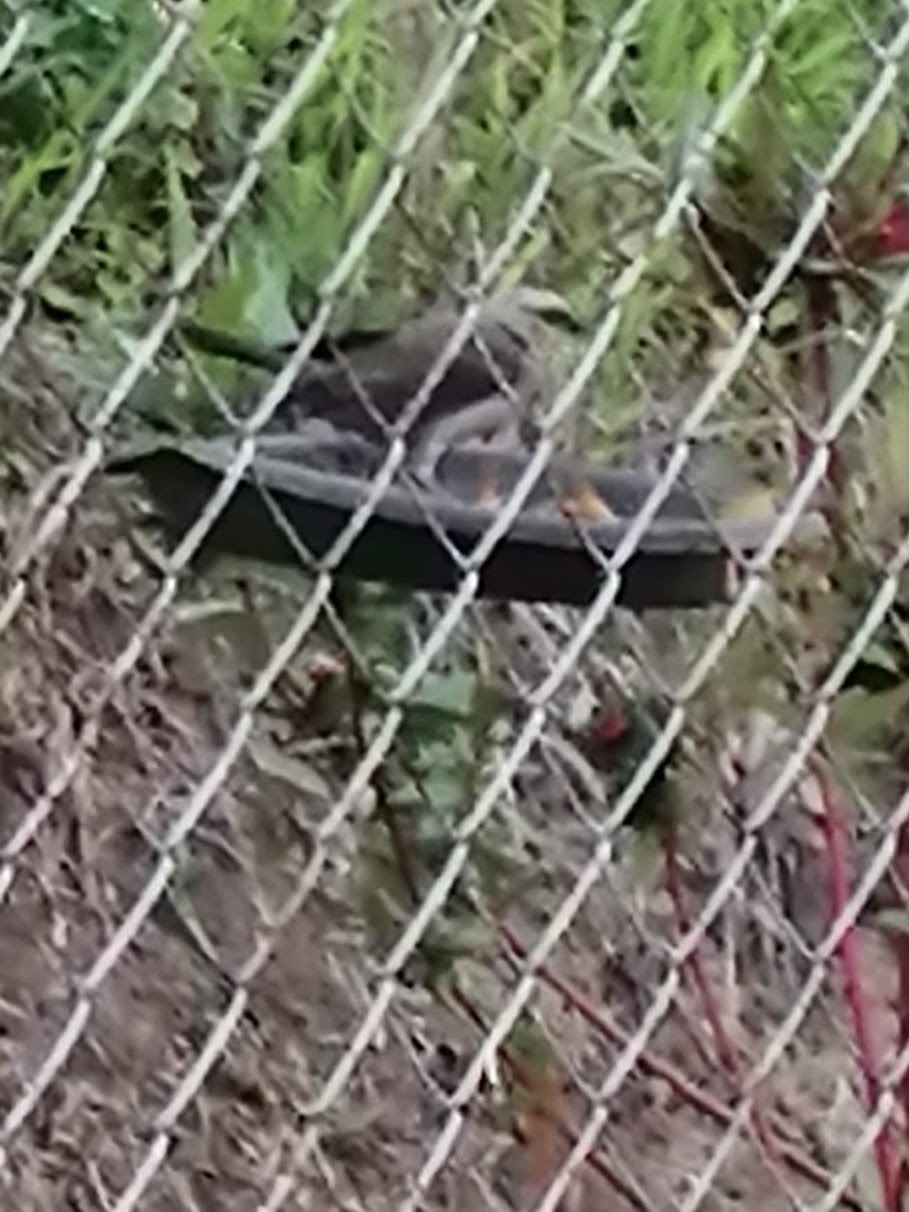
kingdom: Animalia
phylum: Chordata
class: Aves
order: Passeriformes
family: Mimidae
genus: Mimus
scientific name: Mimus gilvus
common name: Tropical mockingbird
